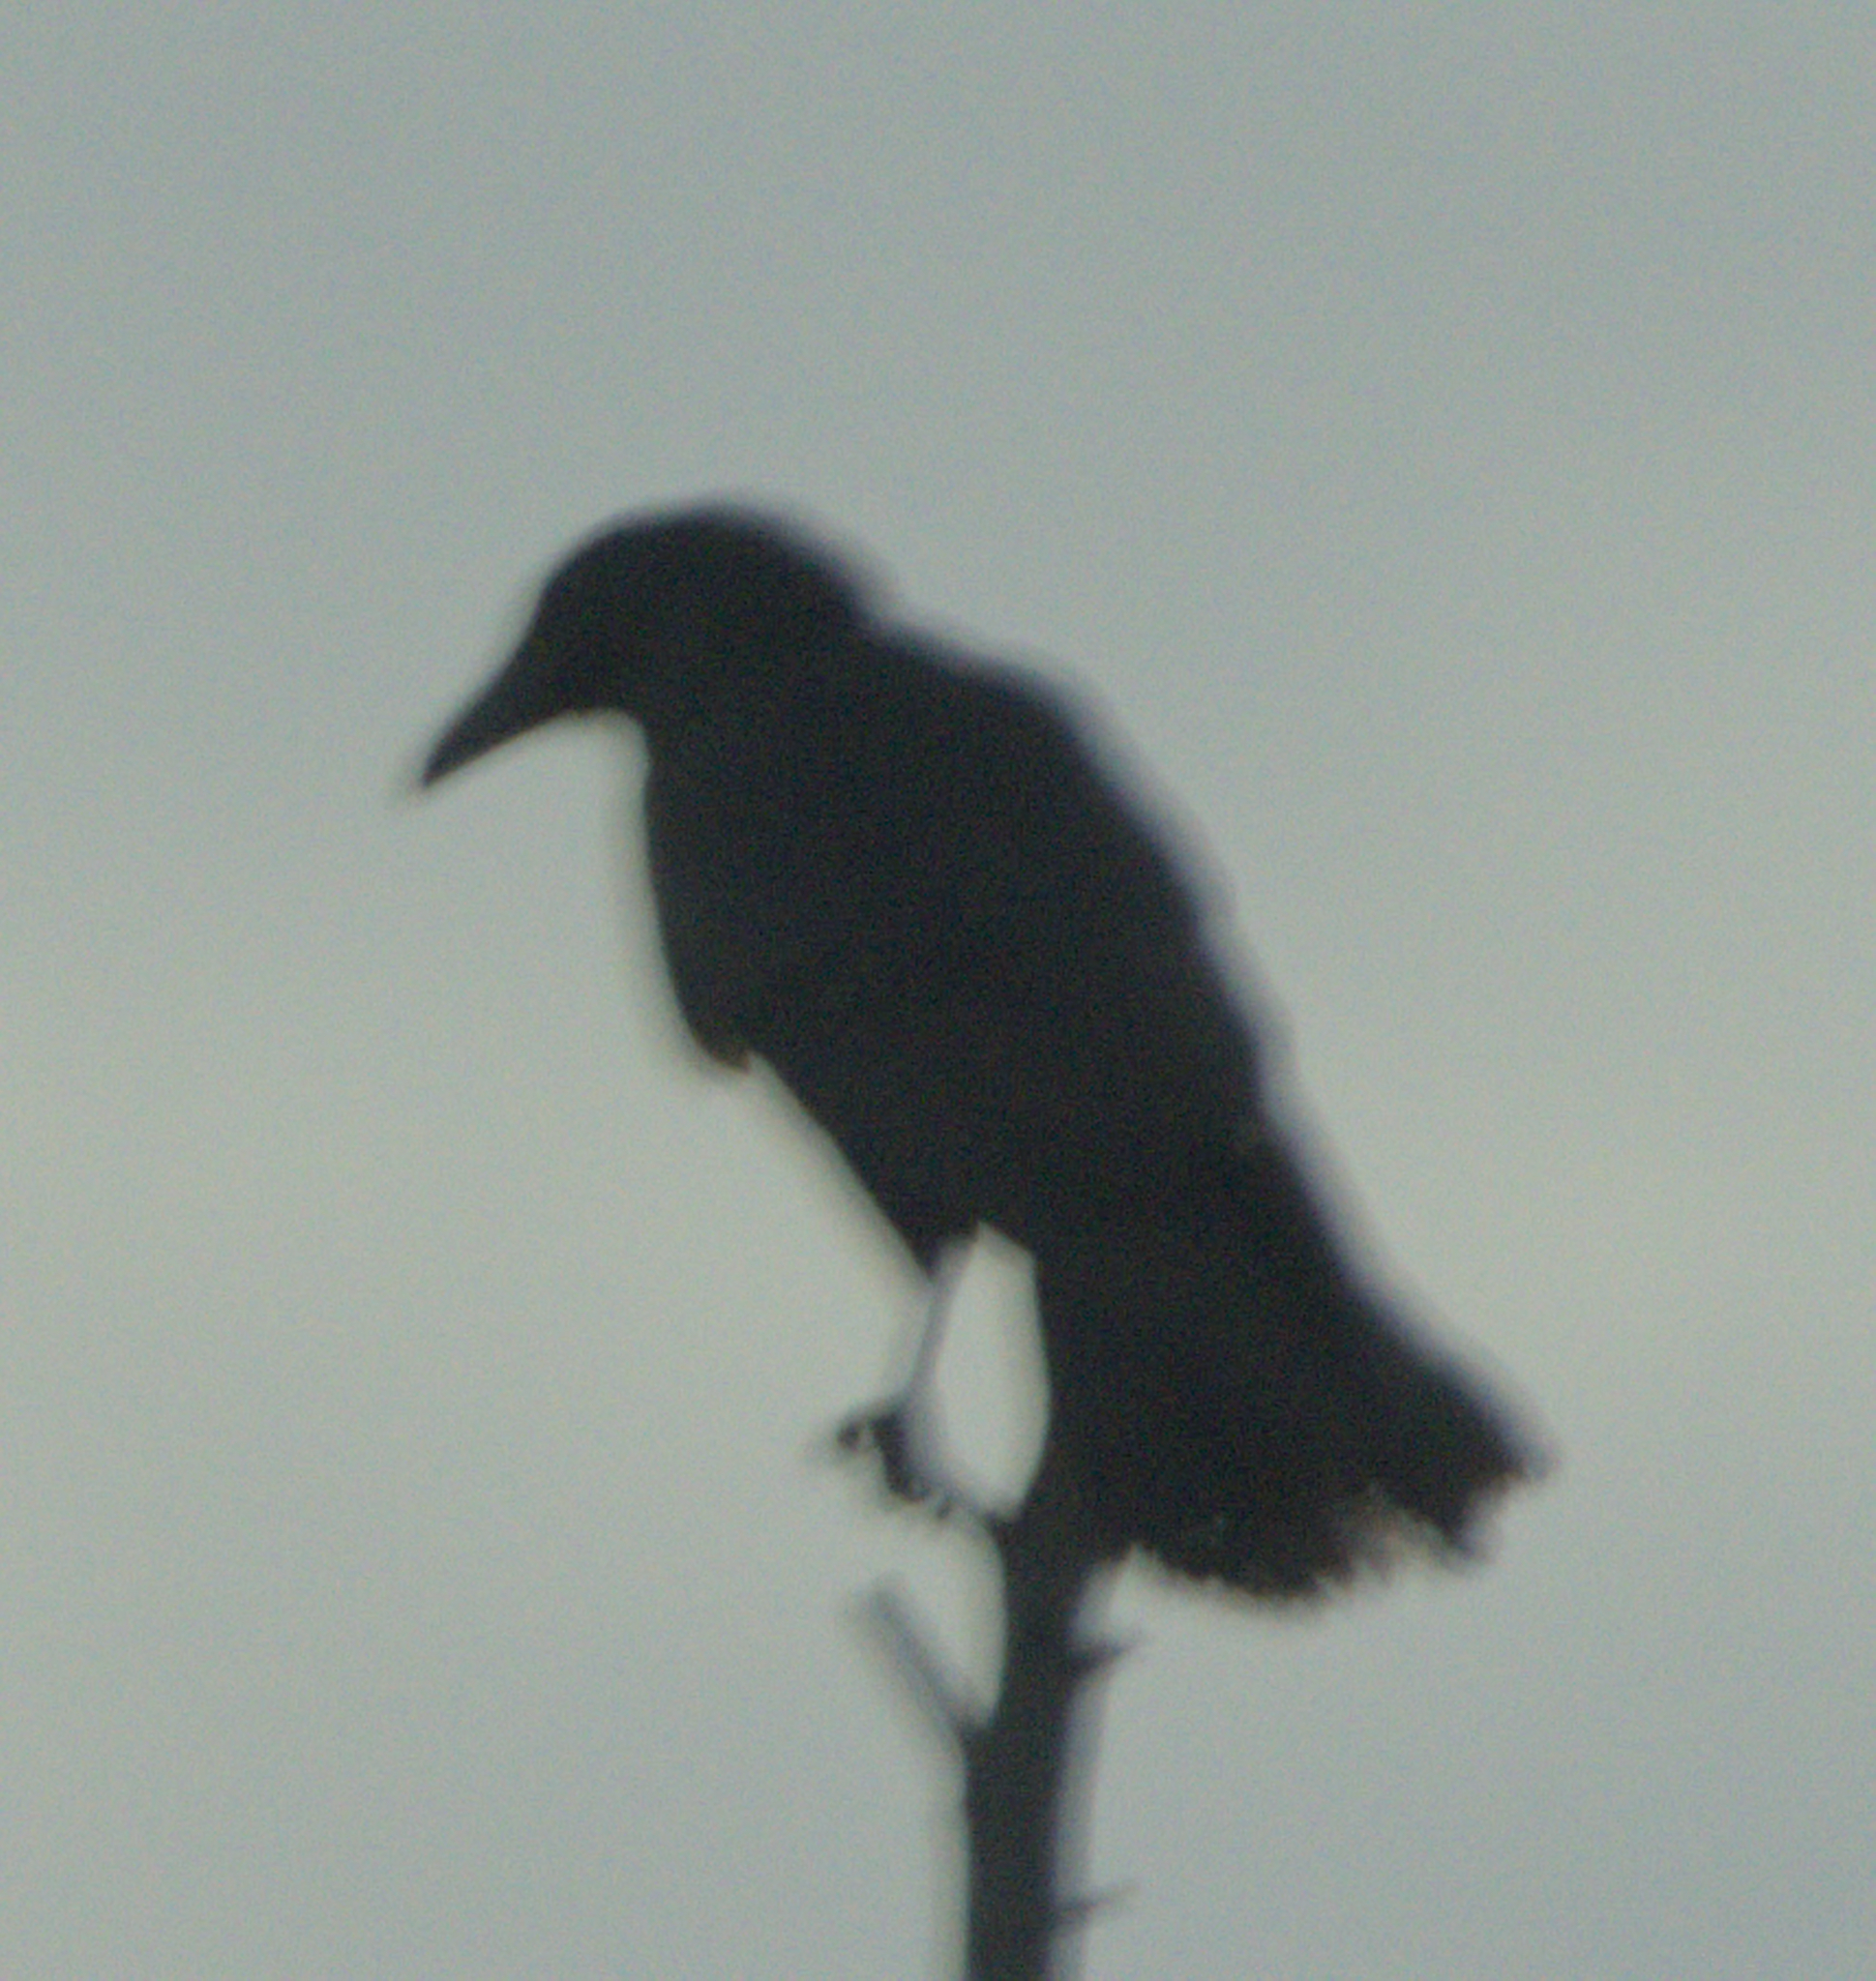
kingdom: Animalia
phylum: Chordata
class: Aves
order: Passeriformes
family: Corvidae
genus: Corvus
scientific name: Corvus corax
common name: Common raven
